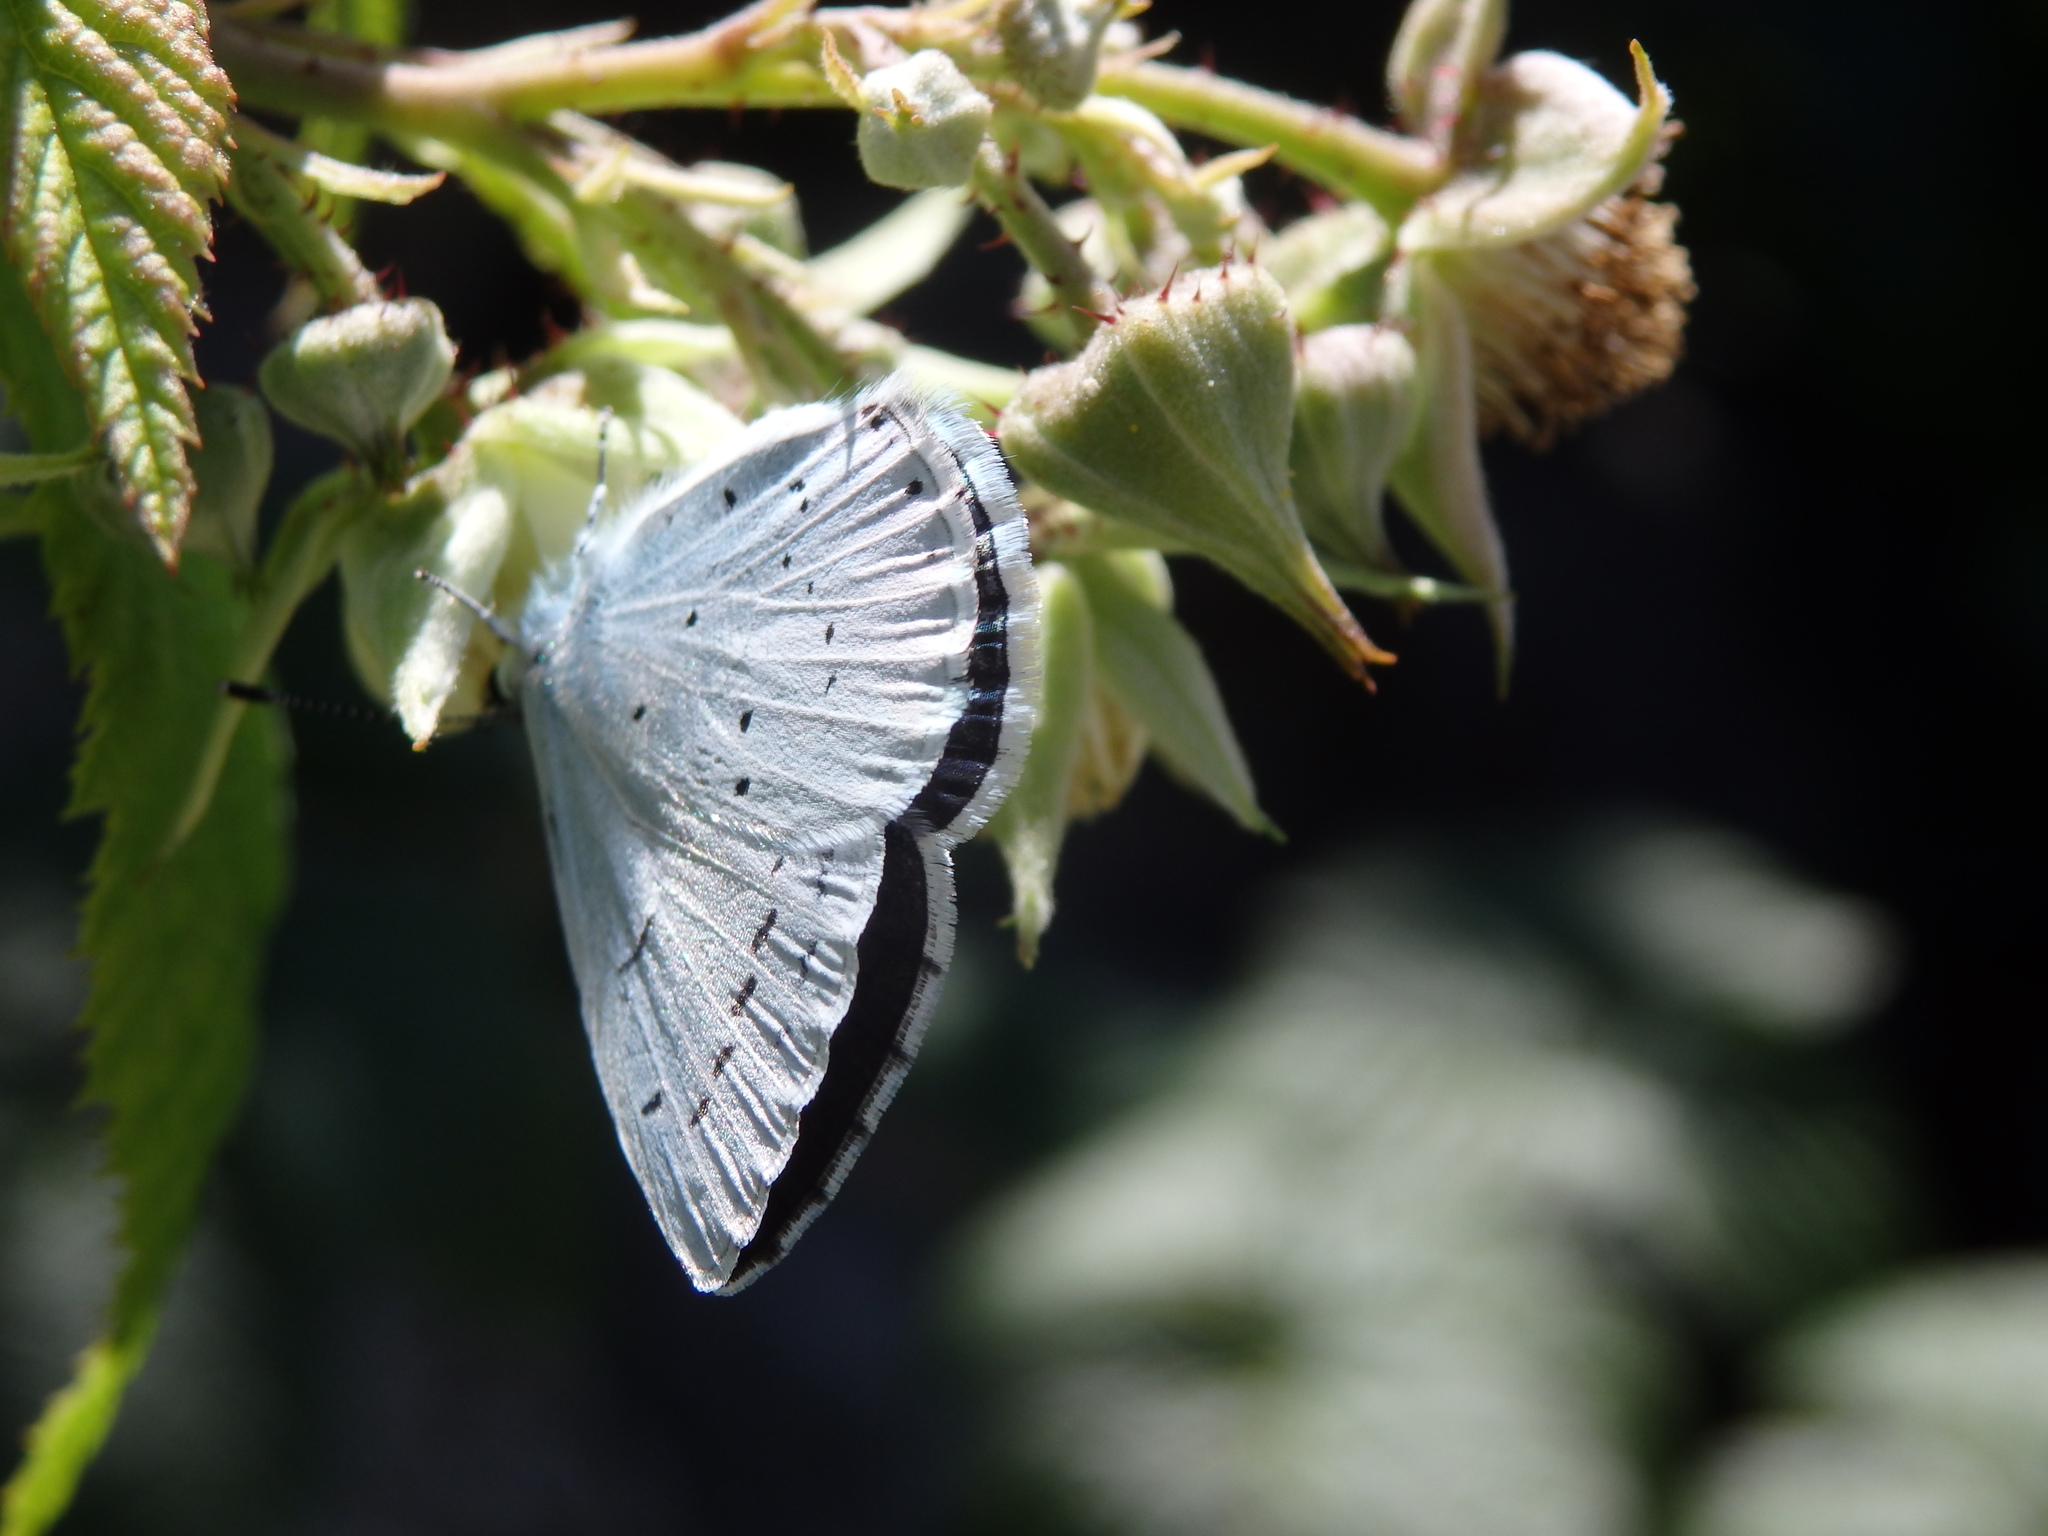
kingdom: Animalia
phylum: Arthropoda
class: Insecta
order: Lepidoptera
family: Lycaenidae
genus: Celastrina
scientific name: Celastrina argiolus
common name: Holly blue
